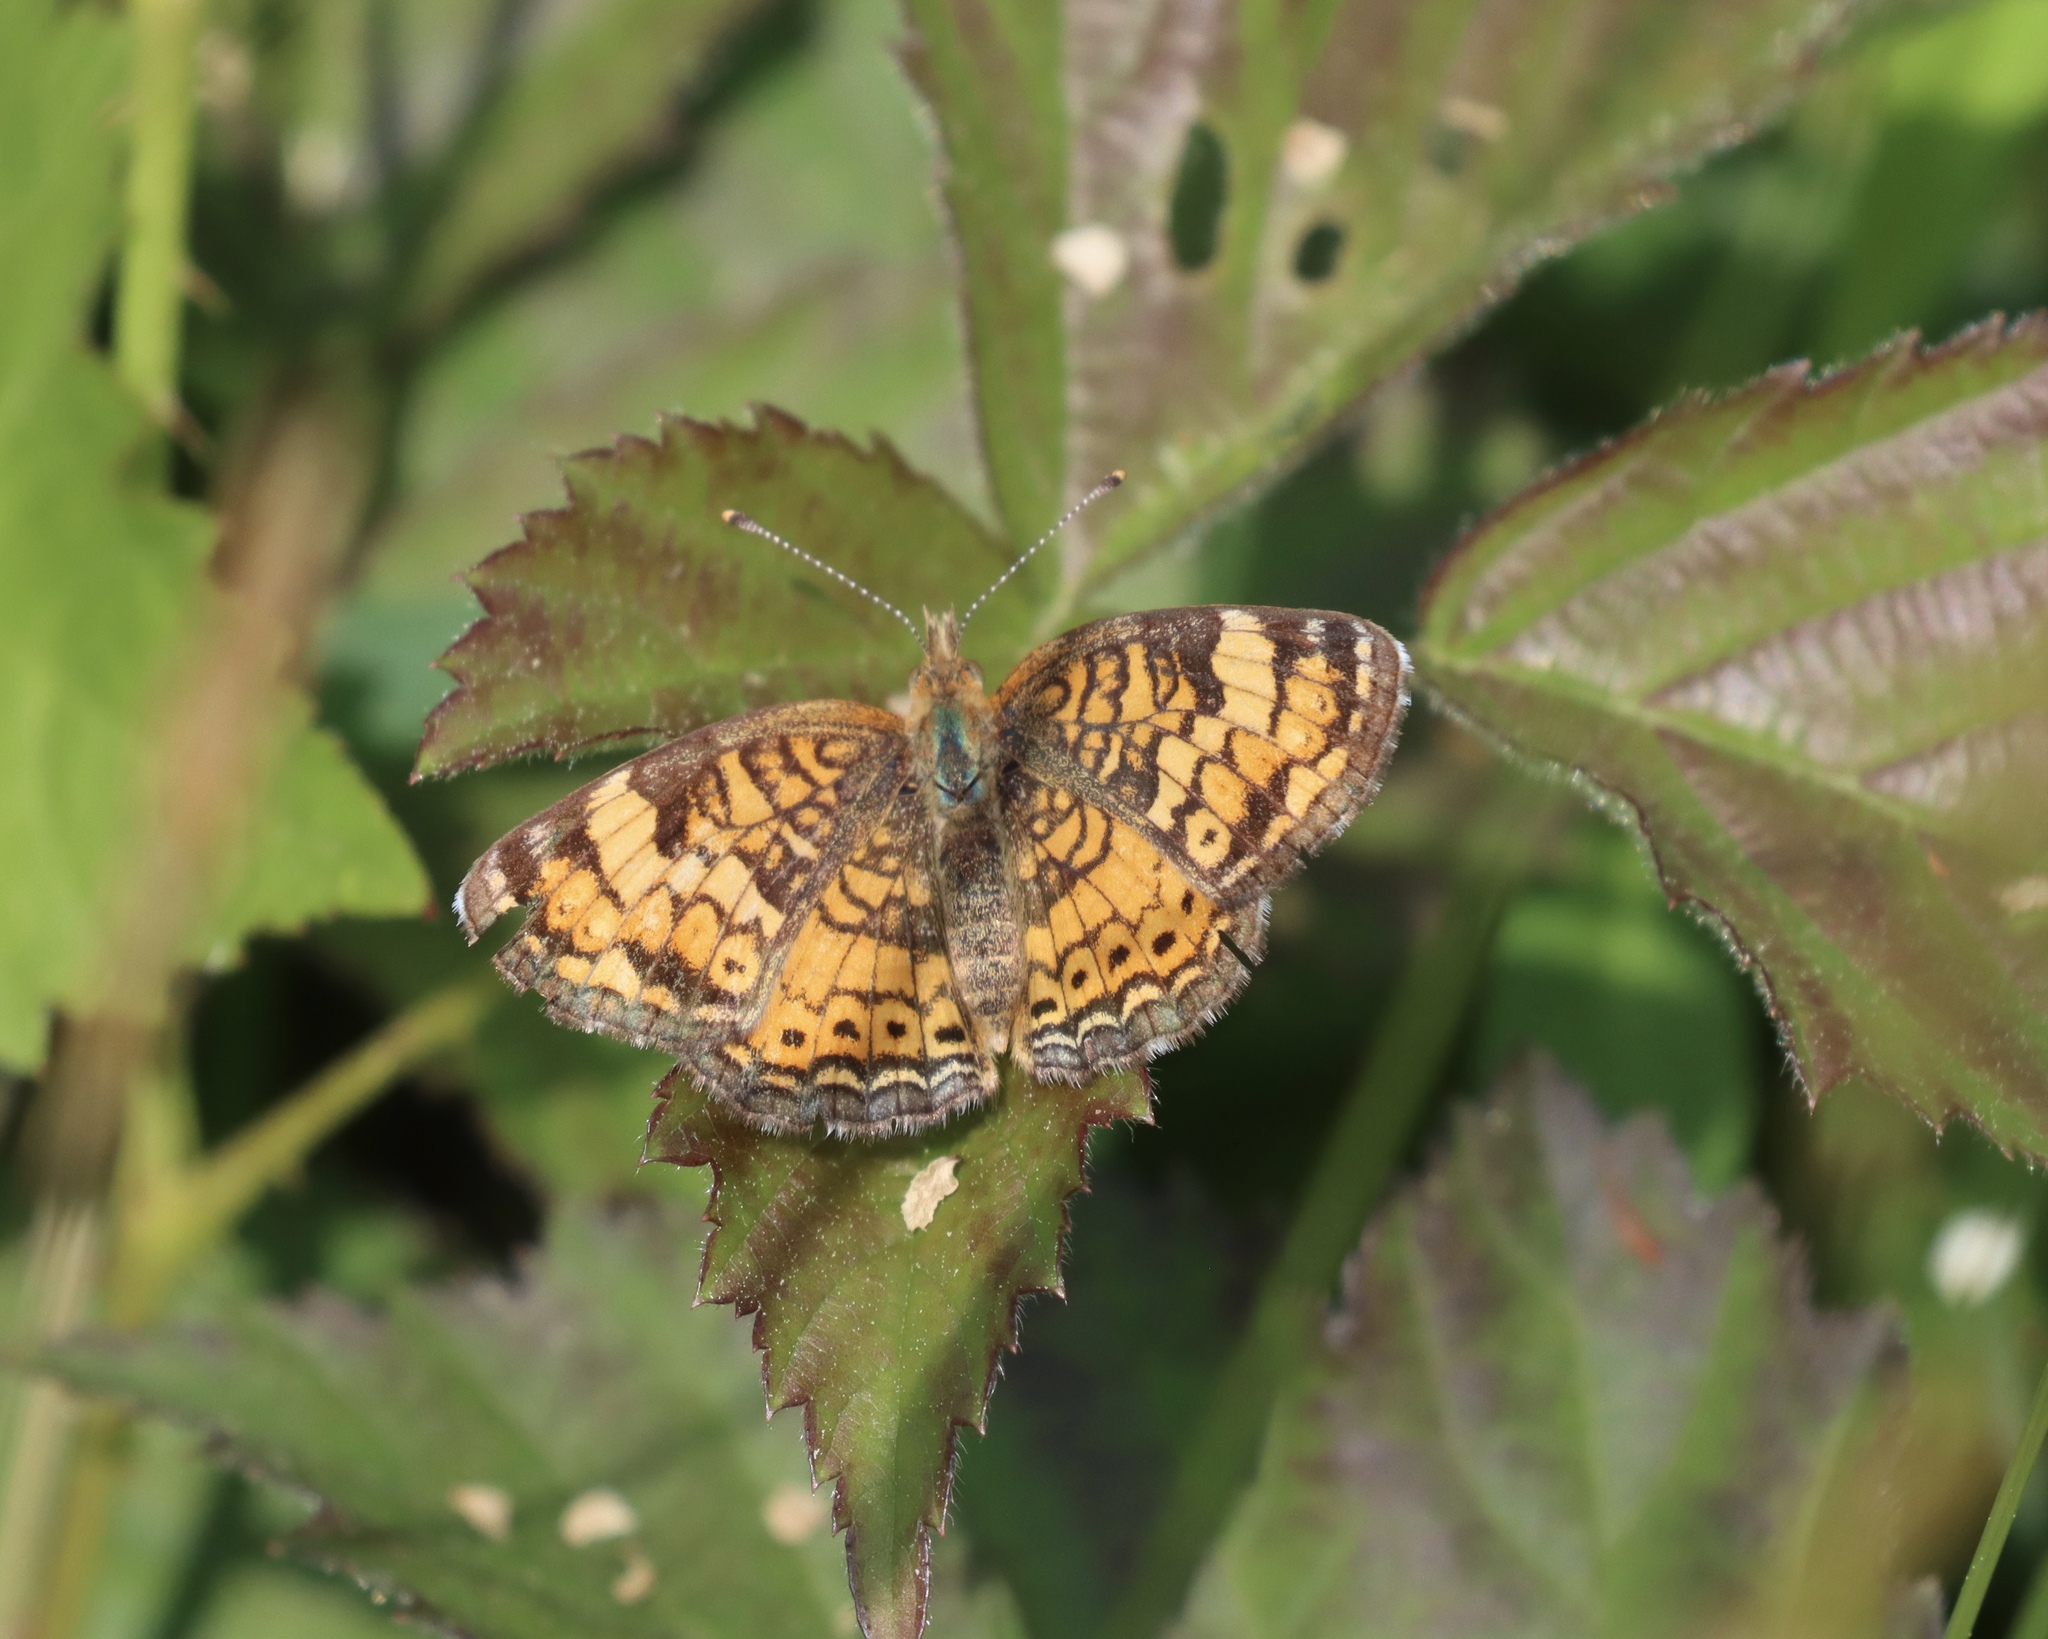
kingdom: Animalia
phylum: Arthropoda
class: Insecta
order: Lepidoptera
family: Nymphalidae
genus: Phyciodes
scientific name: Phyciodes tharos
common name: Pearl crescent
